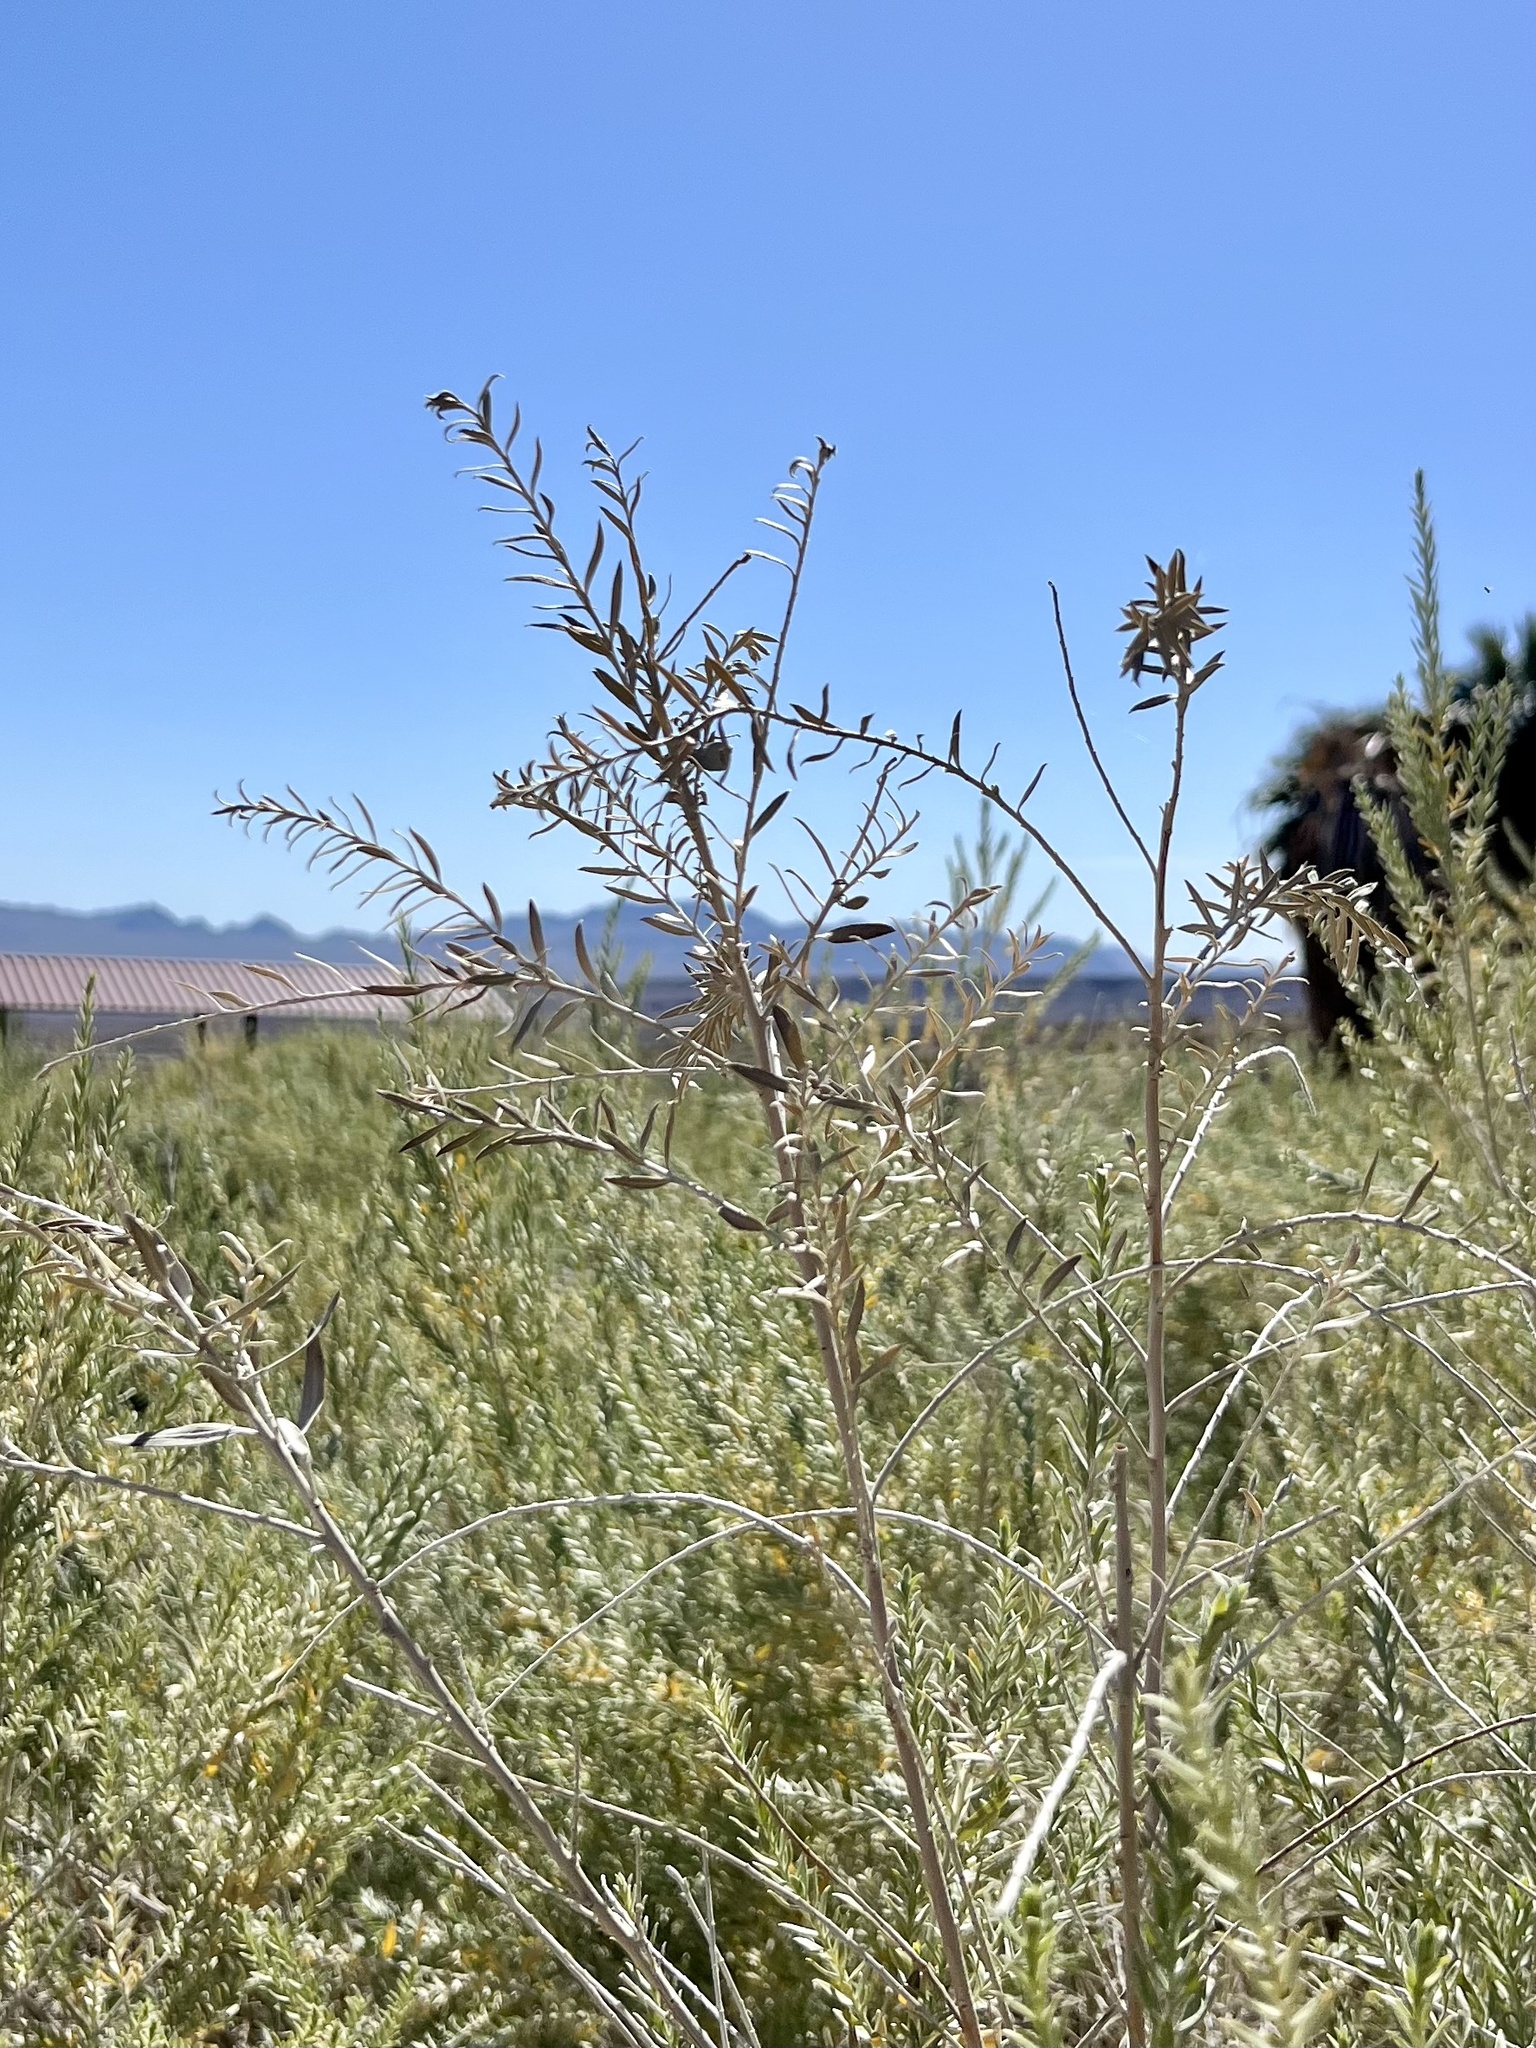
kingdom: Plantae
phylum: Tracheophyta
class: Magnoliopsida
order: Asterales
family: Asteraceae
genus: Pluchea
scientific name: Pluchea sericea
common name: Arrow-weed
